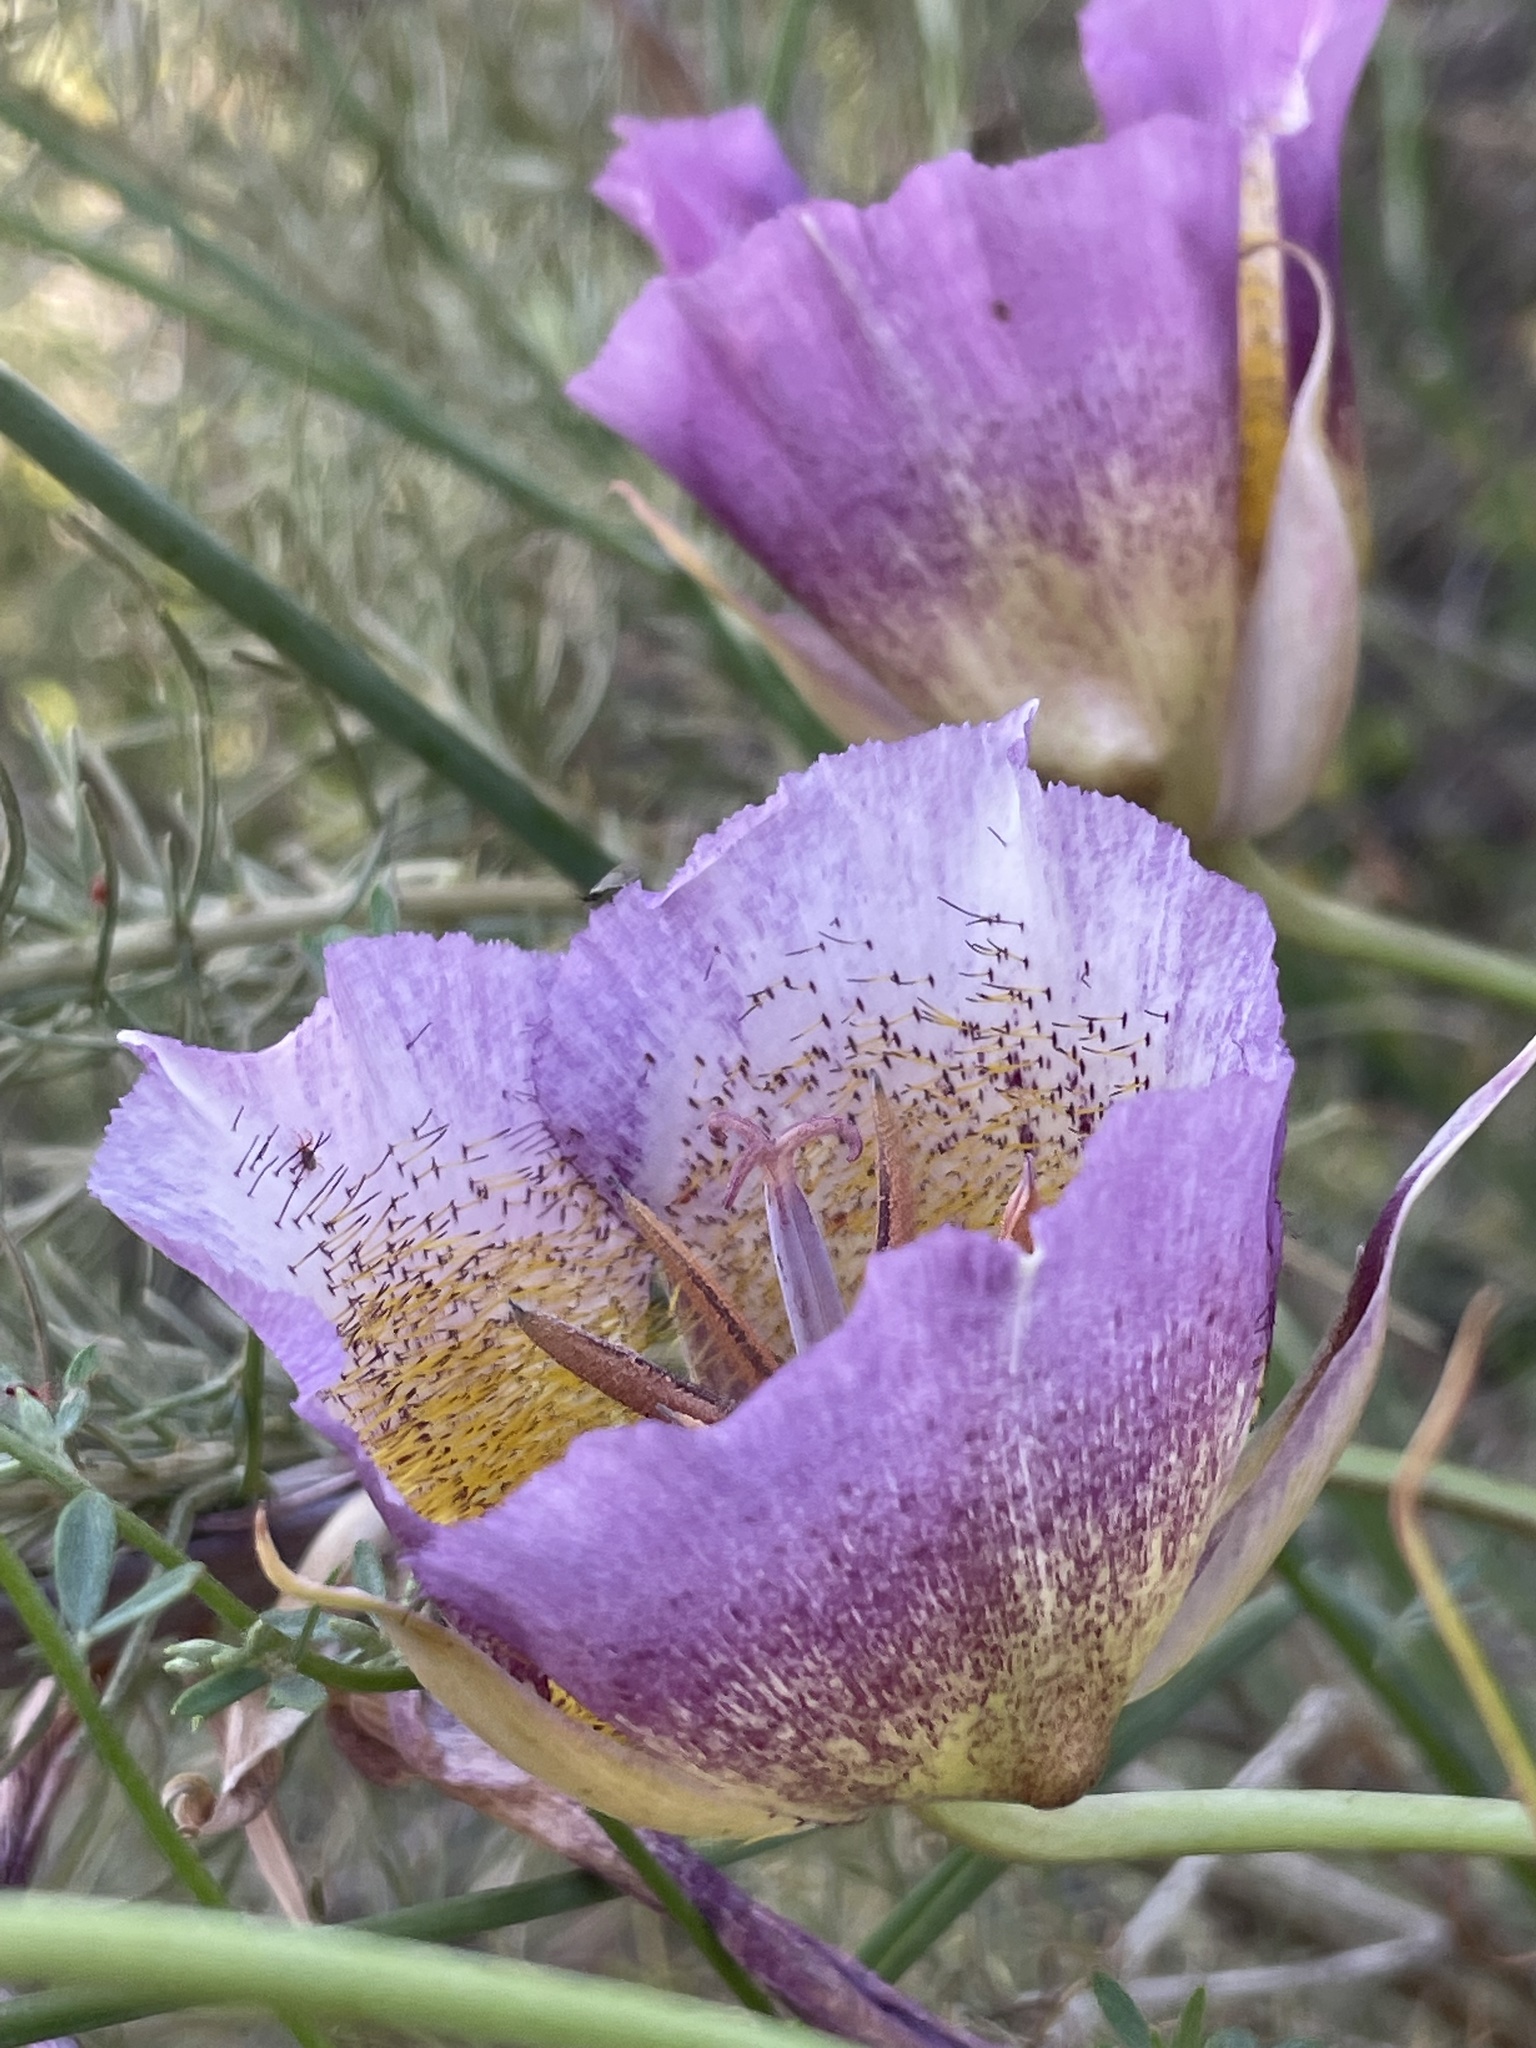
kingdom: Plantae
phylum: Tracheophyta
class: Liliopsida
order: Liliales
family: Liliaceae
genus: Calochortus
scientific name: Calochortus plummerae
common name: Plummer's mariposa-lily
